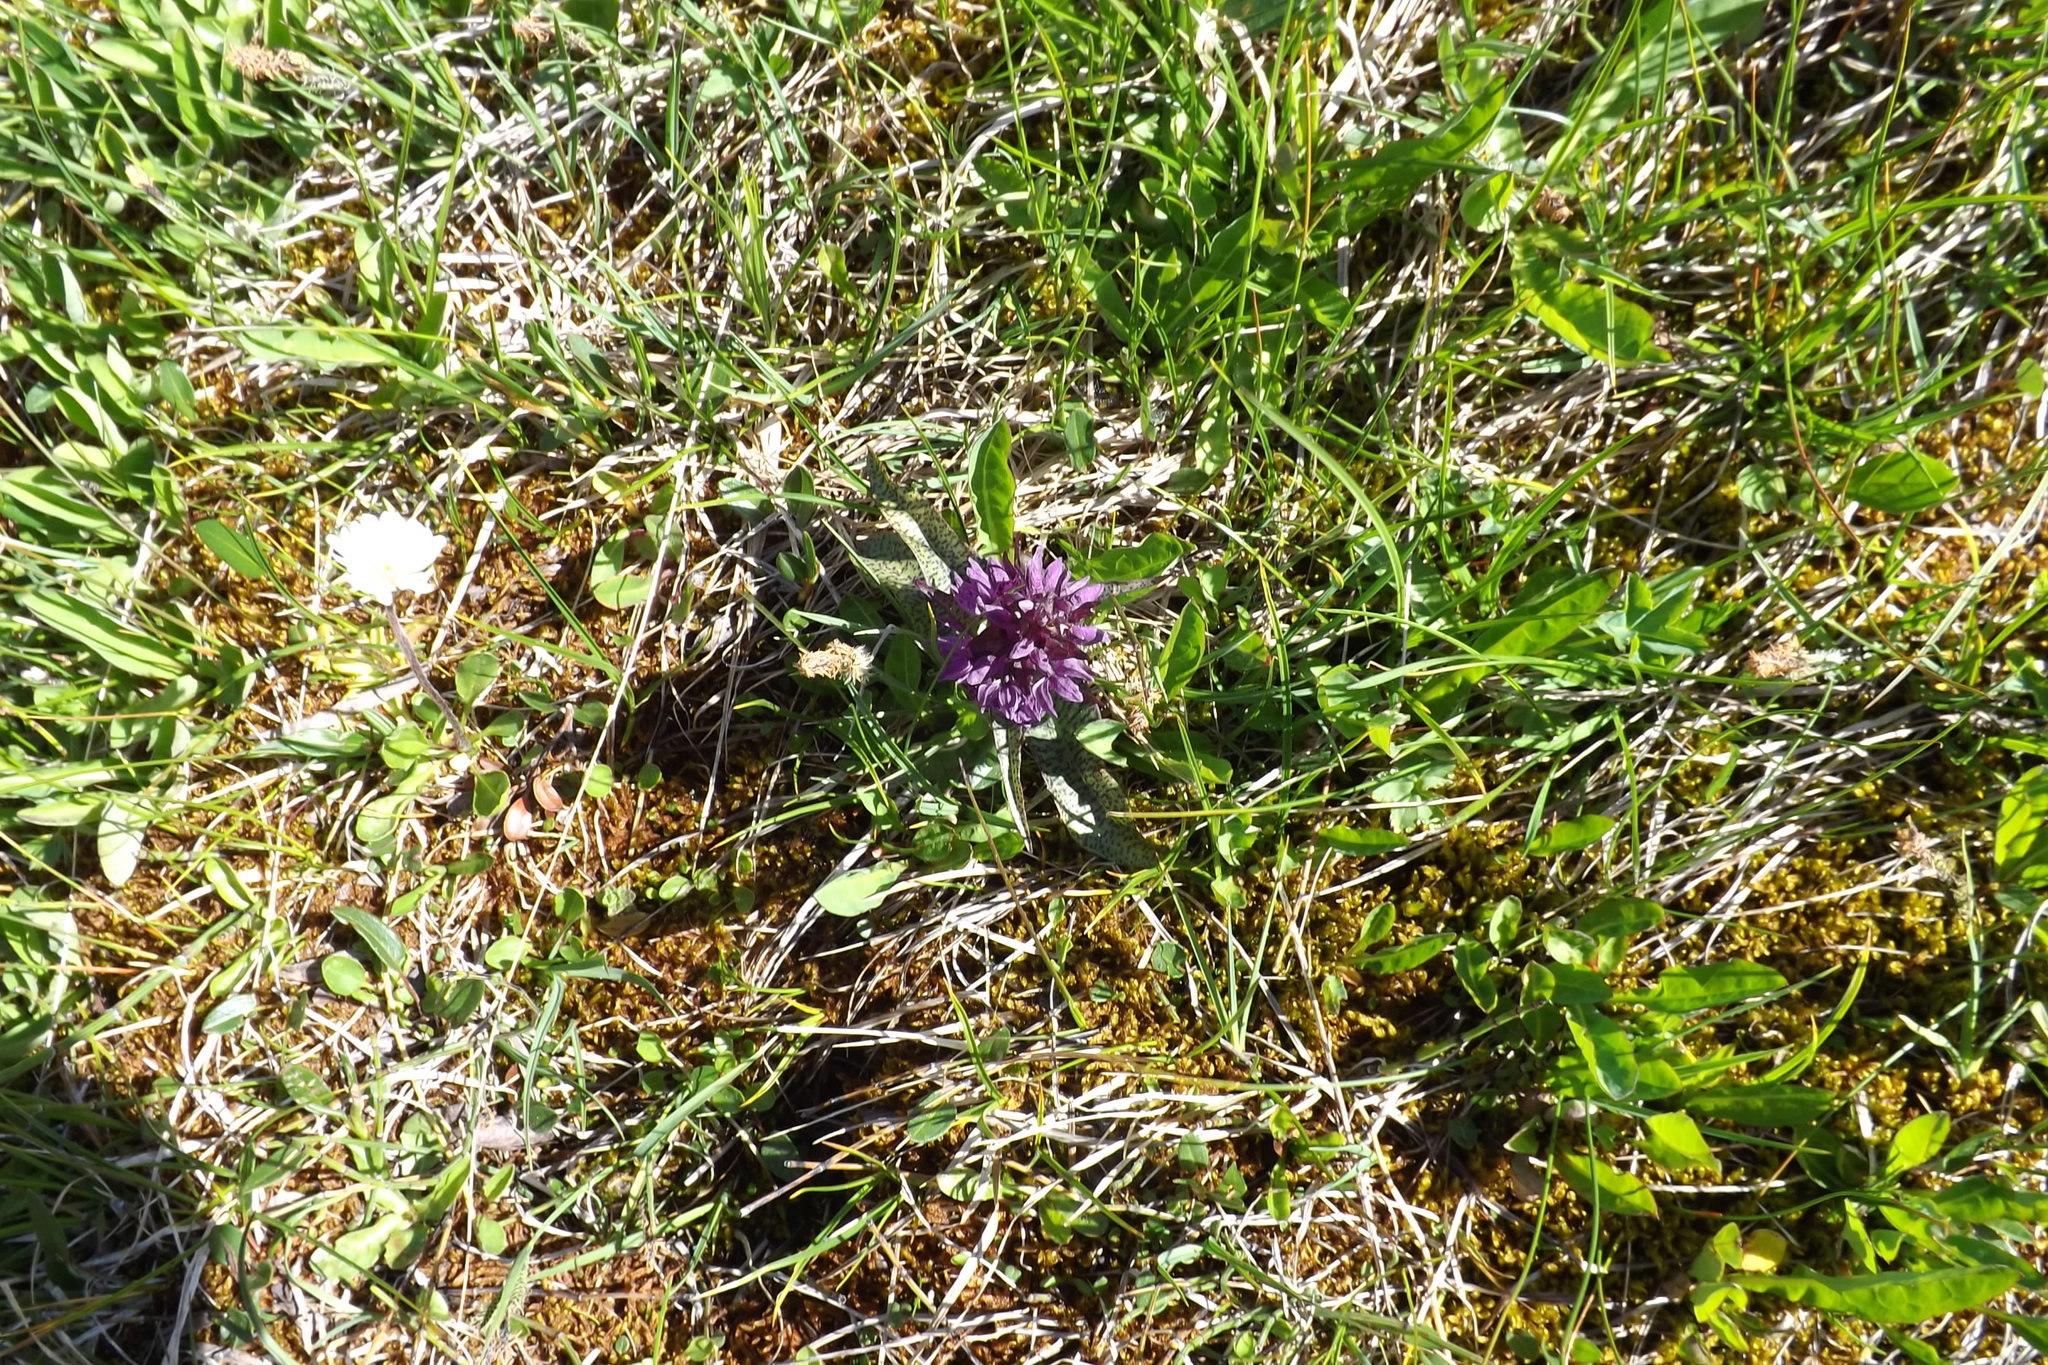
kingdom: Plantae
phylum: Tracheophyta
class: Liliopsida
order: Asparagales
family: Orchidaceae
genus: Dactylorhiza
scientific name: Dactylorhiza majalis
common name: Marsh orchid
